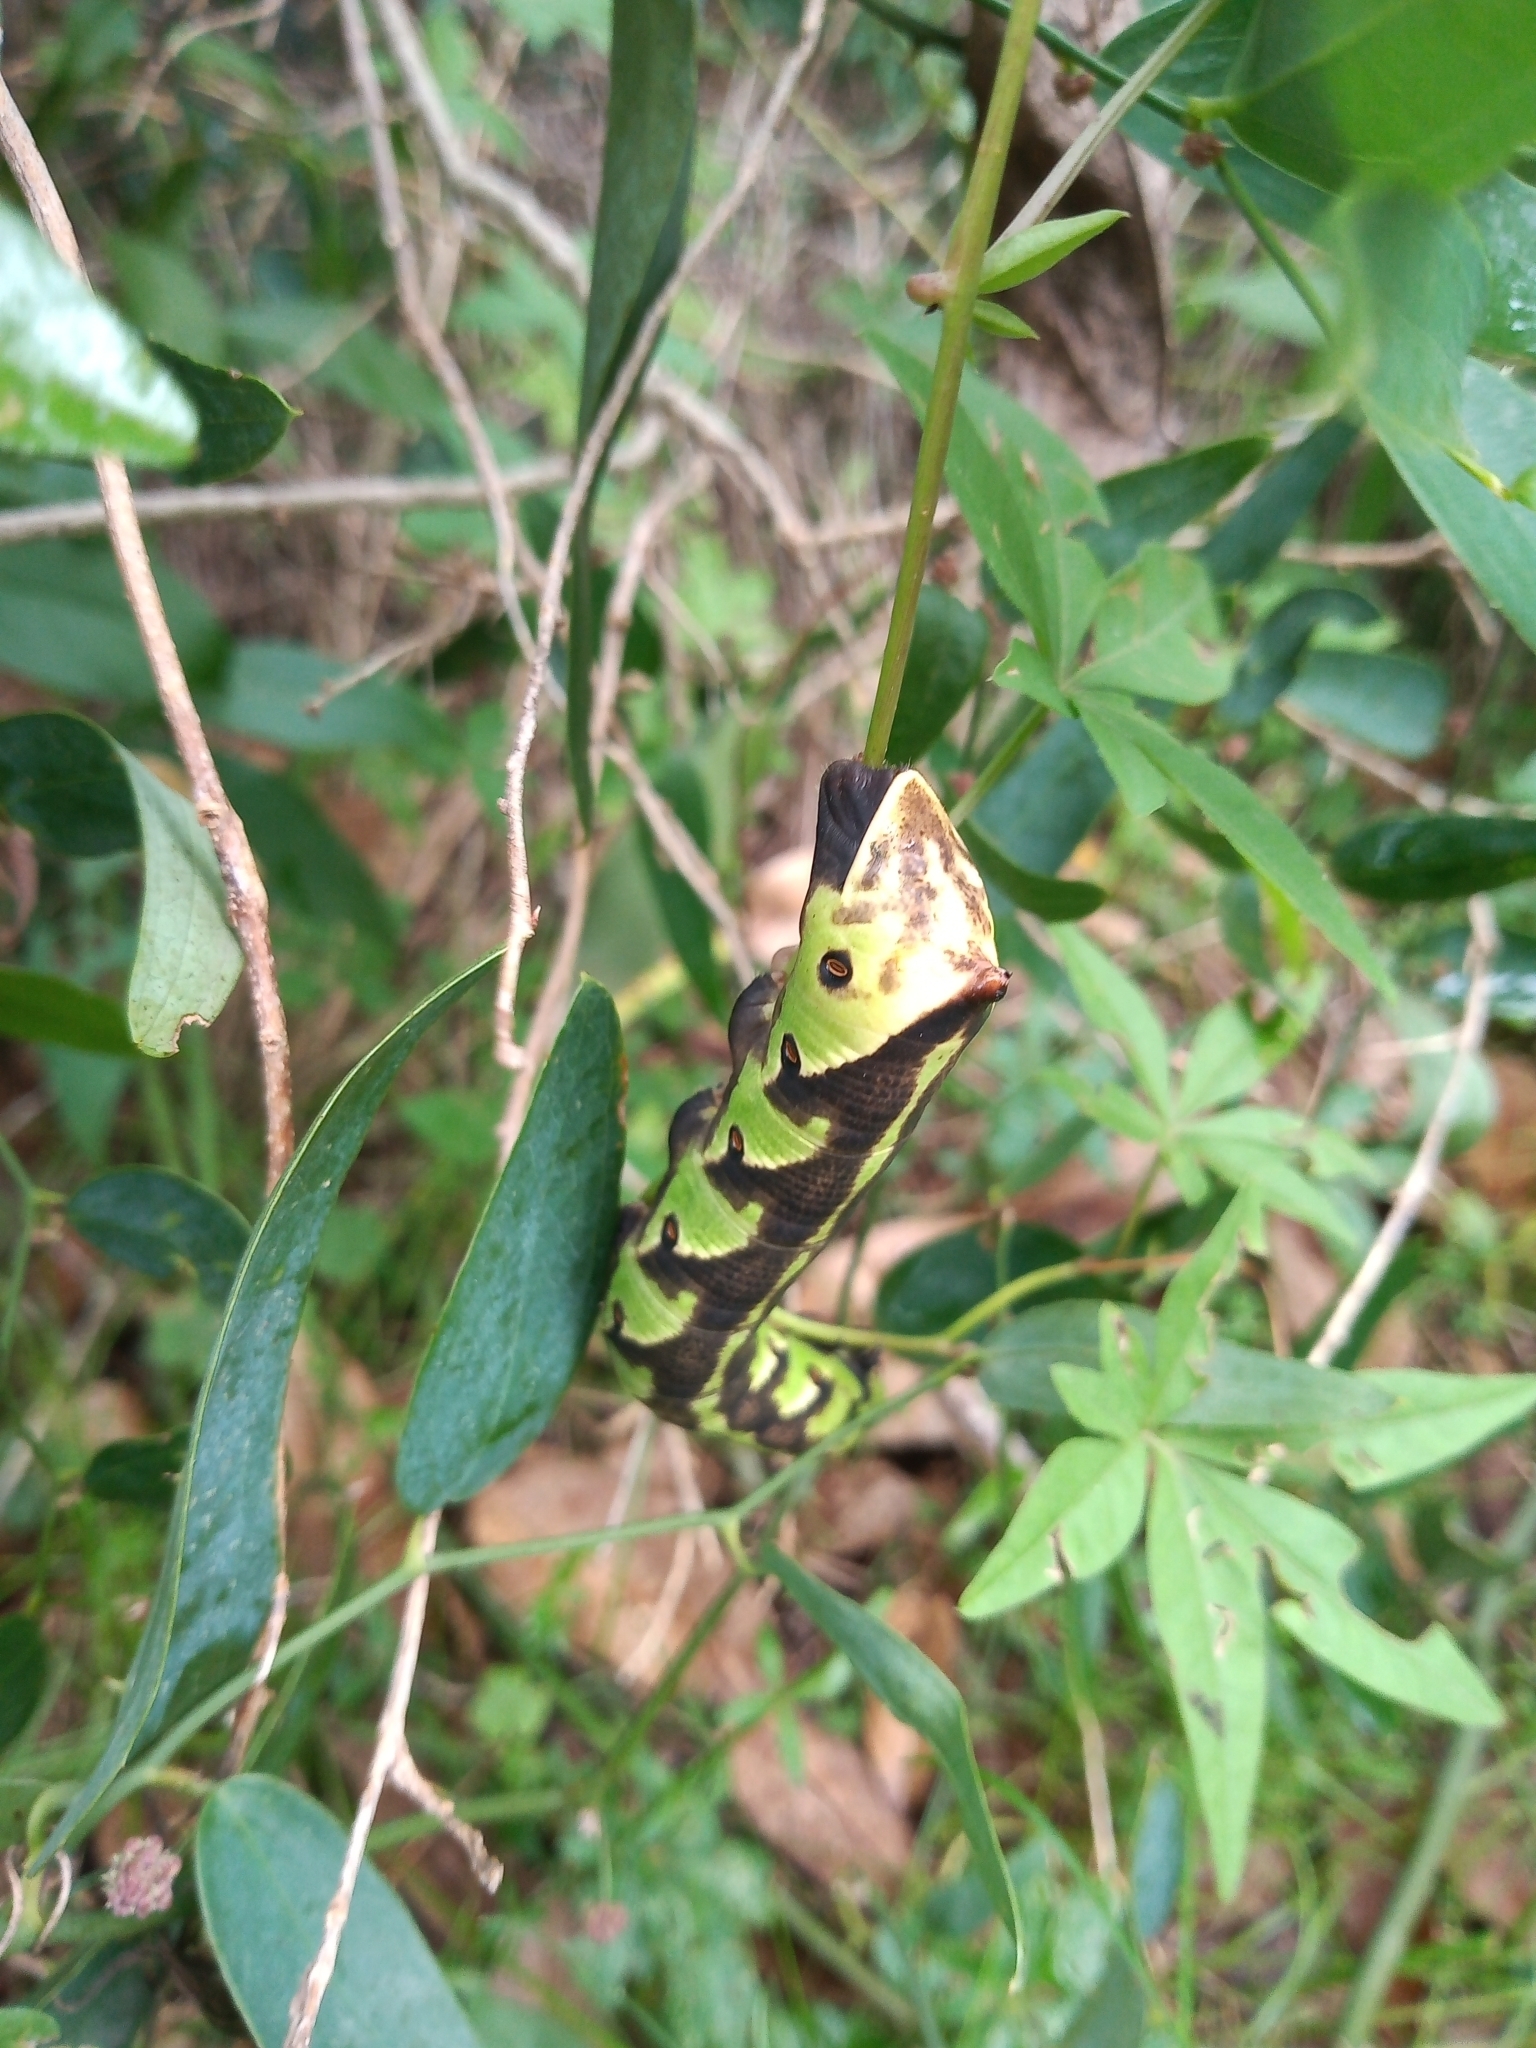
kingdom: Animalia
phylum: Arthropoda
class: Insecta
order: Lepidoptera
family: Sphingidae
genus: Agrius
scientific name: Agrius cingulata
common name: Pink-spotted hawkmoth
